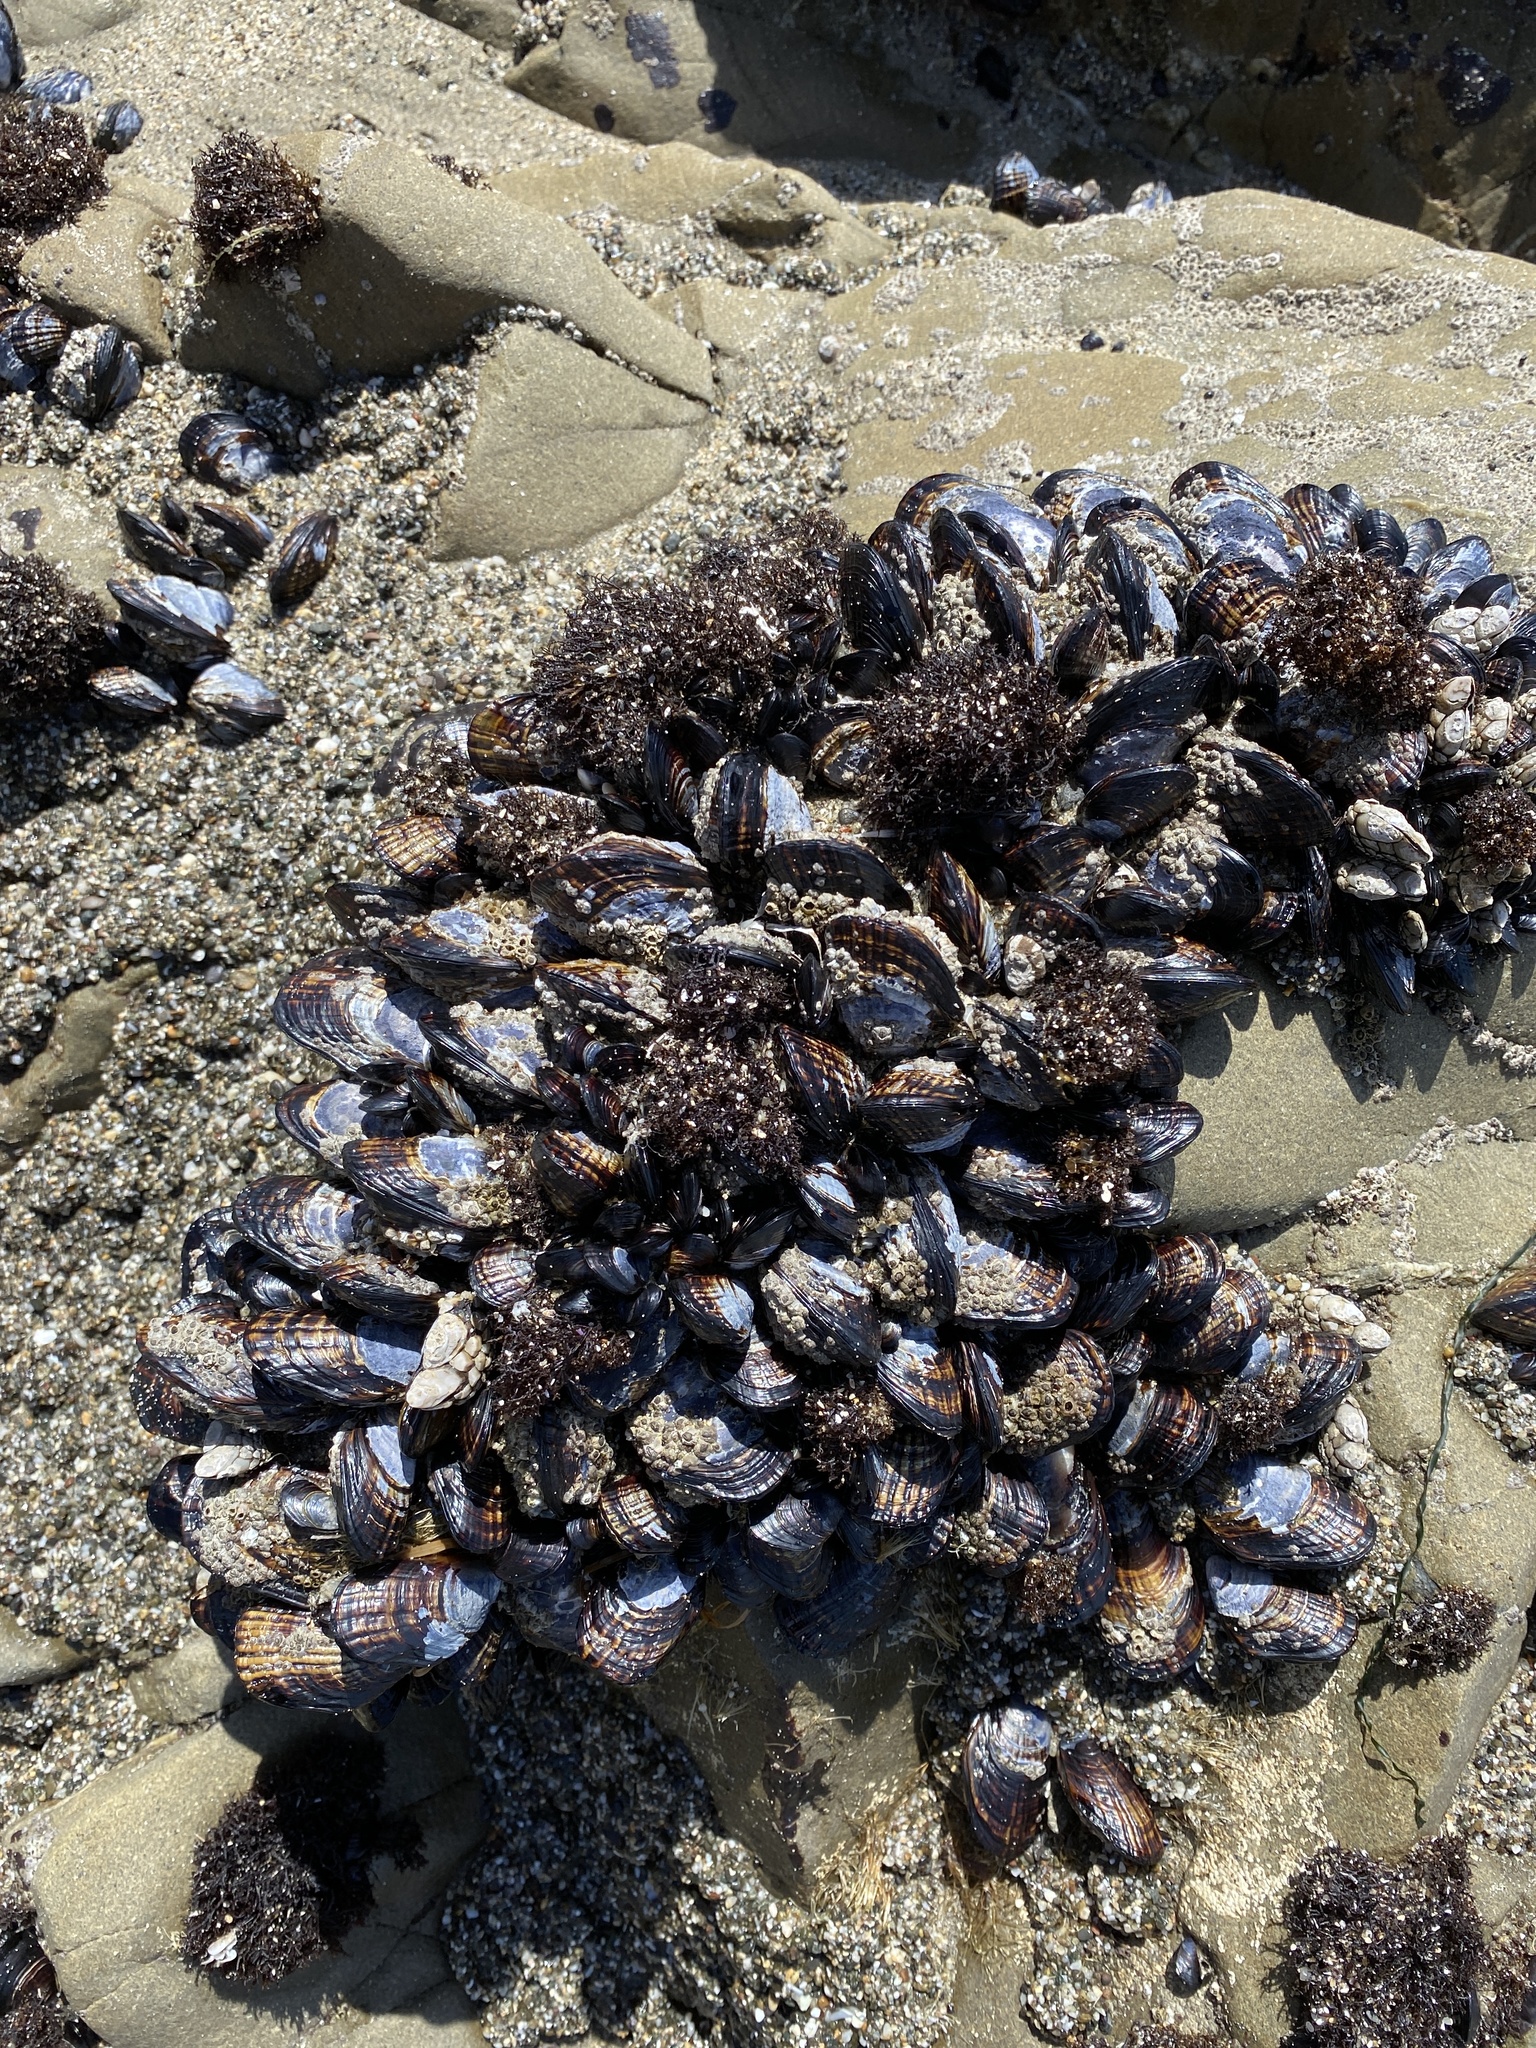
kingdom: Animalia
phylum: Mollusca
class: Bivalvia
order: Mytilida
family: Mytilidae
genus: Mytilus
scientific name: Mytilus californianus
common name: California mussel
